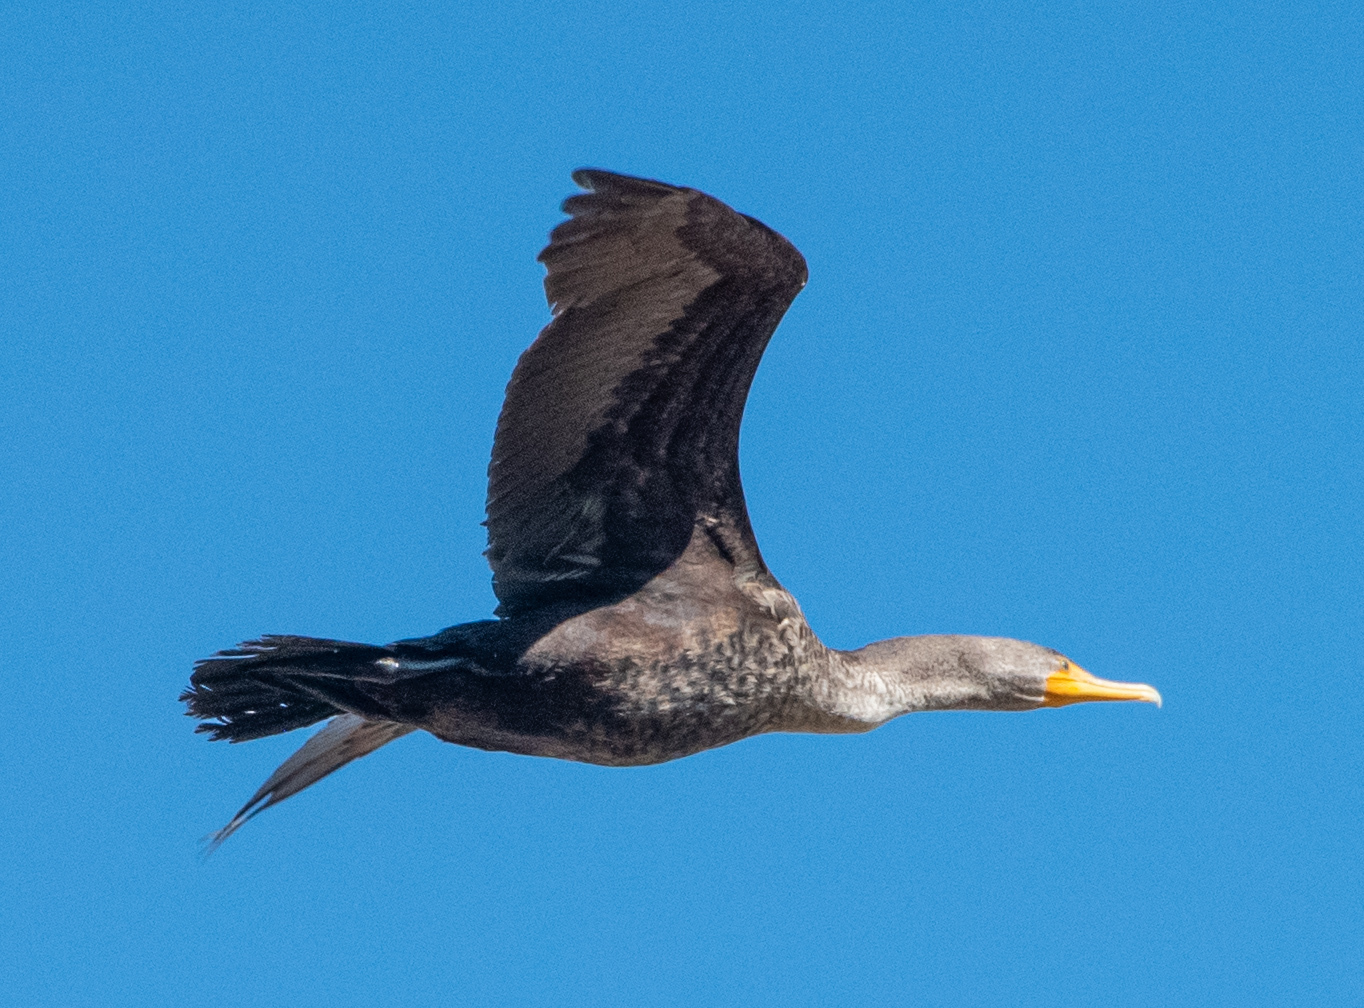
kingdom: Animalia
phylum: Chordata
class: Aves
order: Suliformes
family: Phalacrocoracidae
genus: Phalacrocorax
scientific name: Phalacrocorax auritus
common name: Double-crested cormorant
